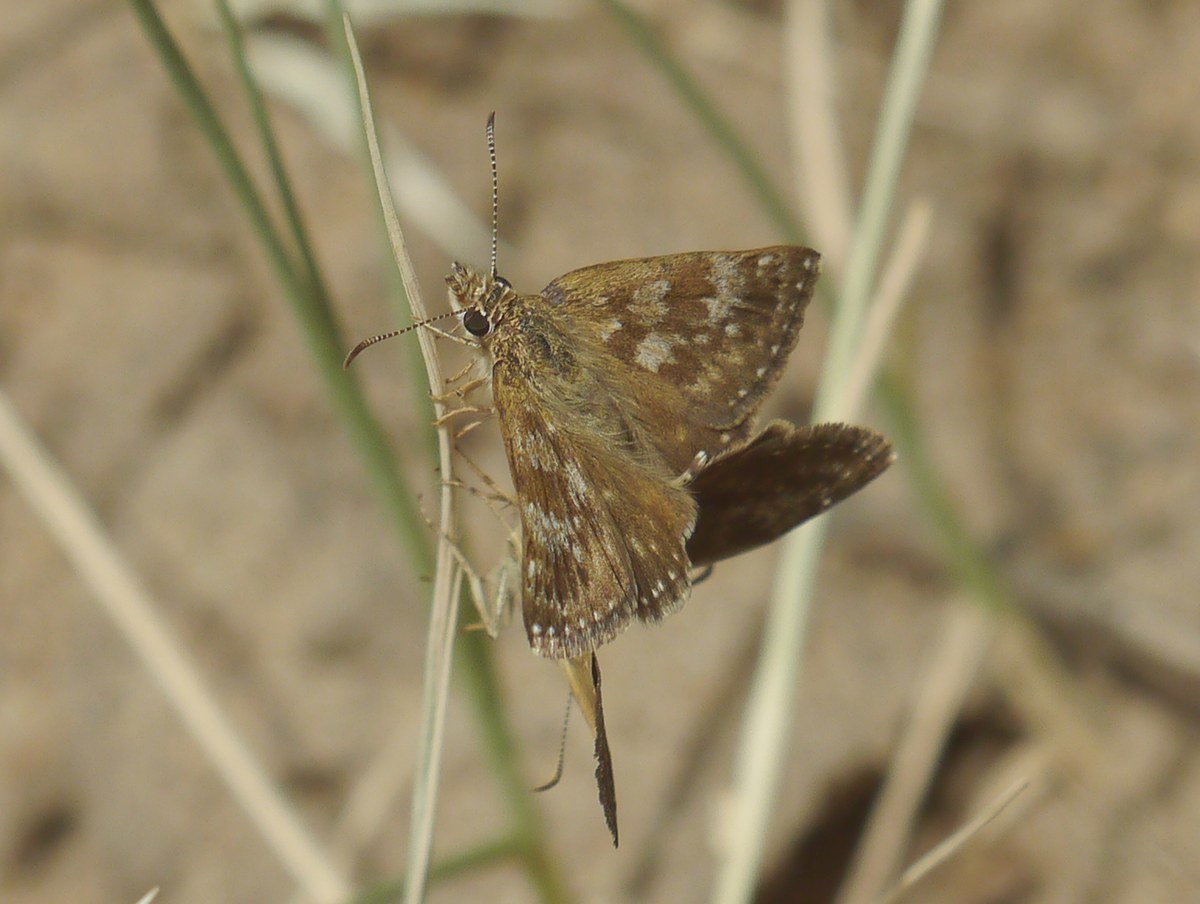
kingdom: Animalia
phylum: Arthropoda
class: Insecta
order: Lepidoptera
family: Hesperiidae
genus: Erynnis
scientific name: Erynnis tages
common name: Dingy skipper
